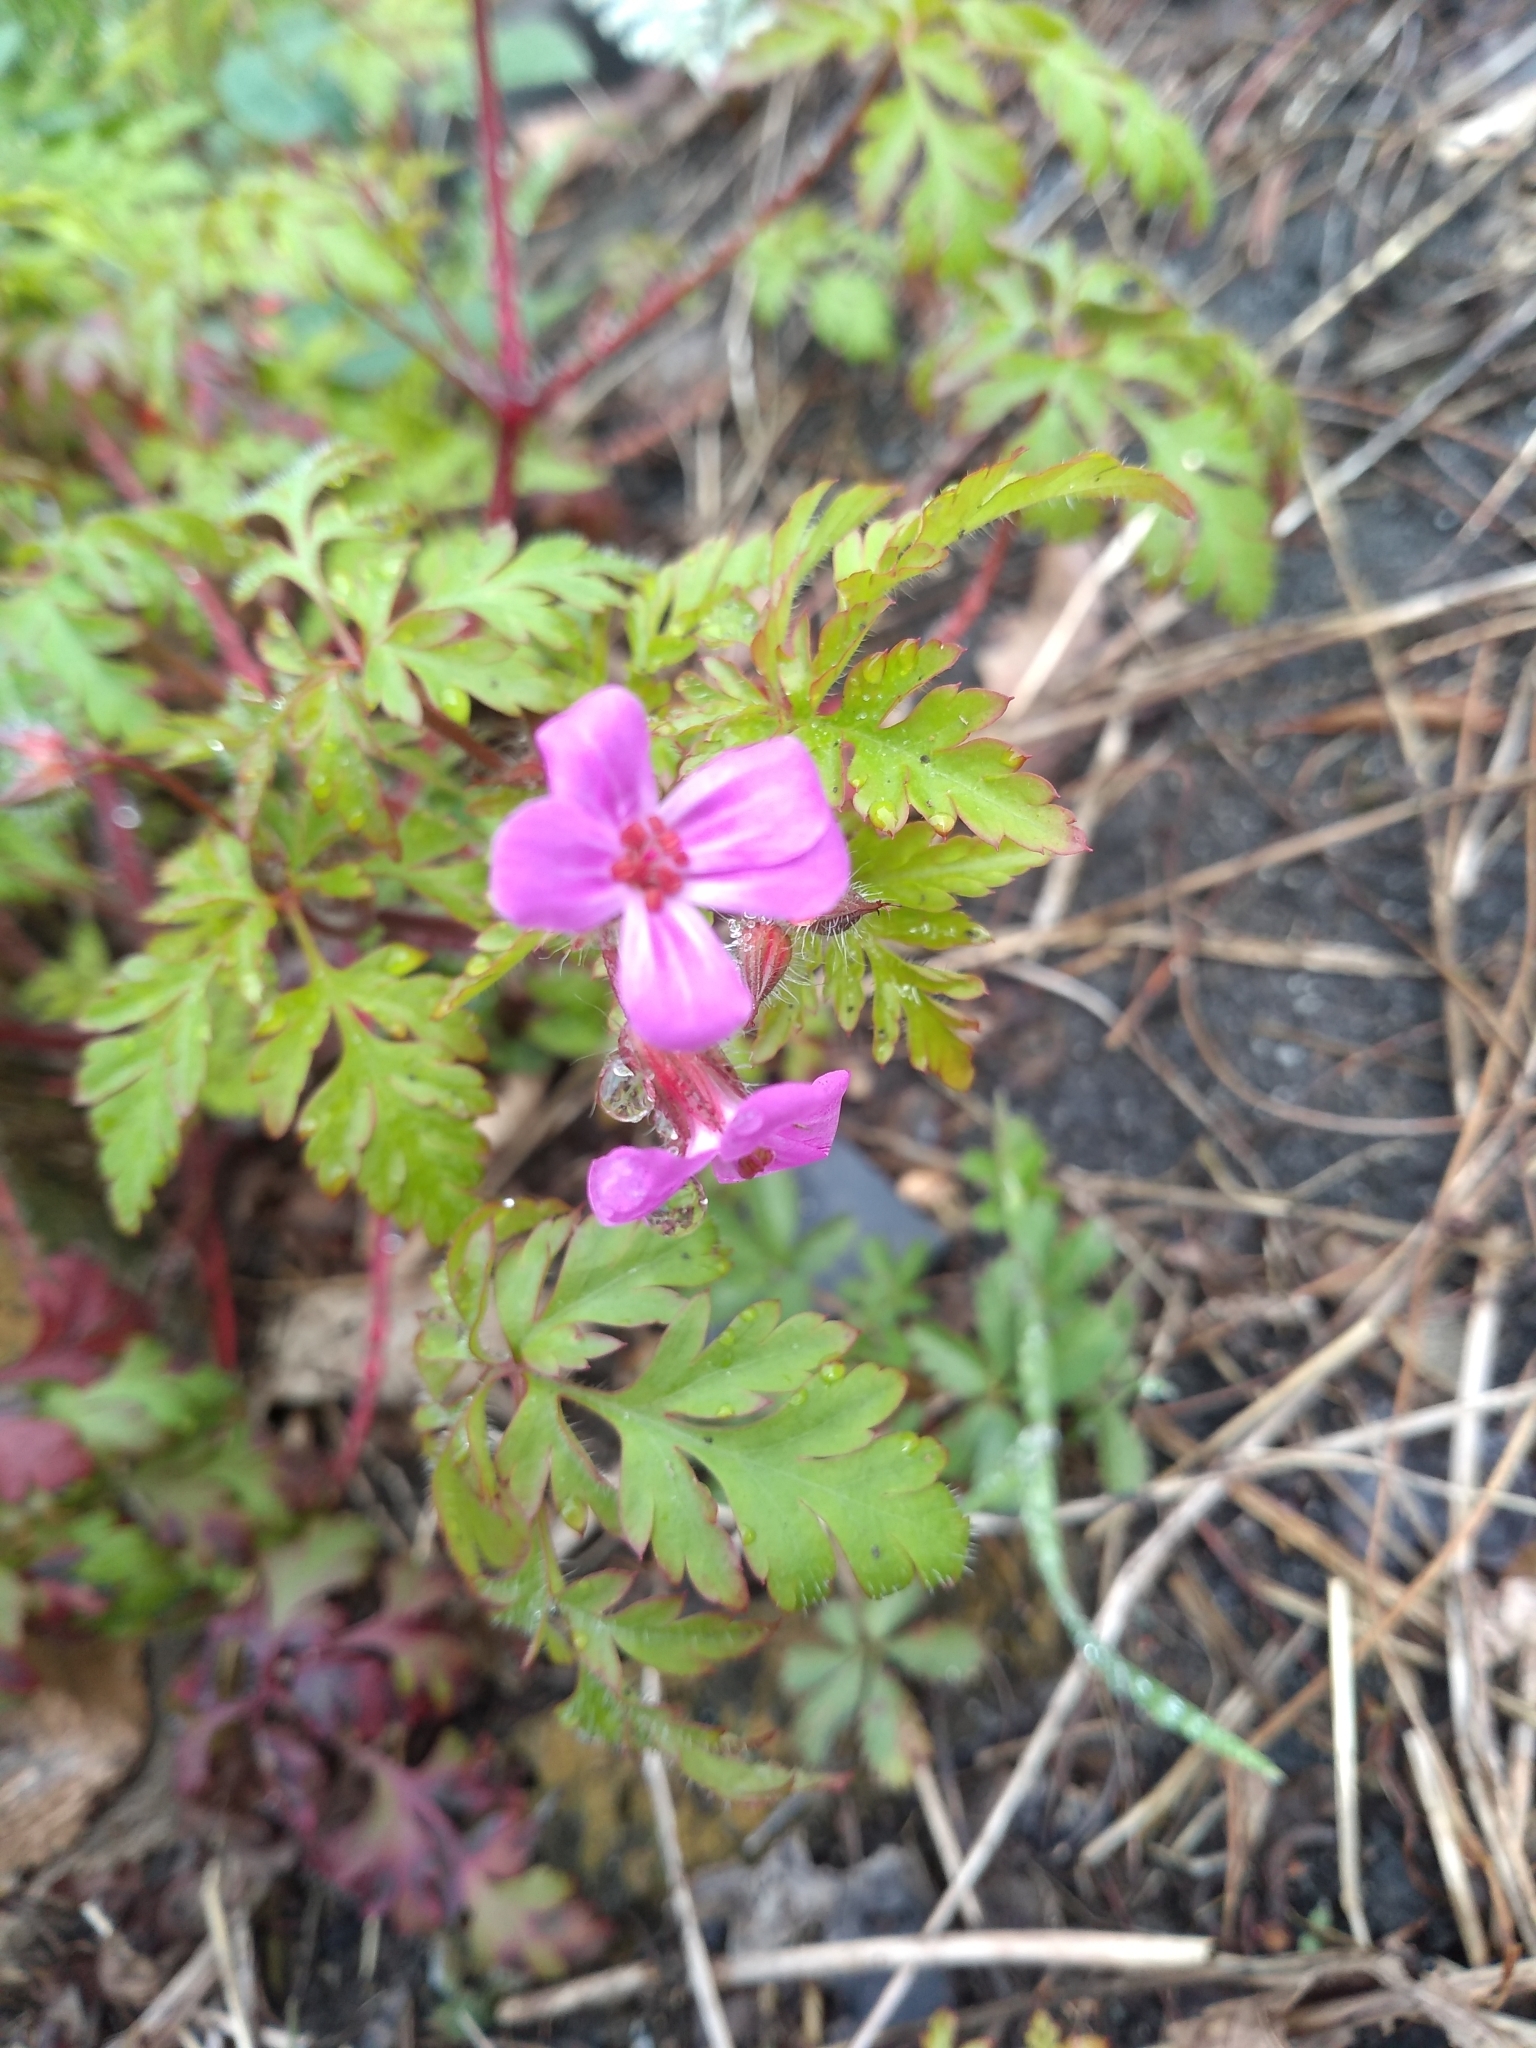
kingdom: Plantae
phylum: Tracheophyta
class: Magnoliopsida
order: Geraniales
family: Geraniaceae
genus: Geranium
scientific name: Geranium robertianum
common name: Herb-robert
